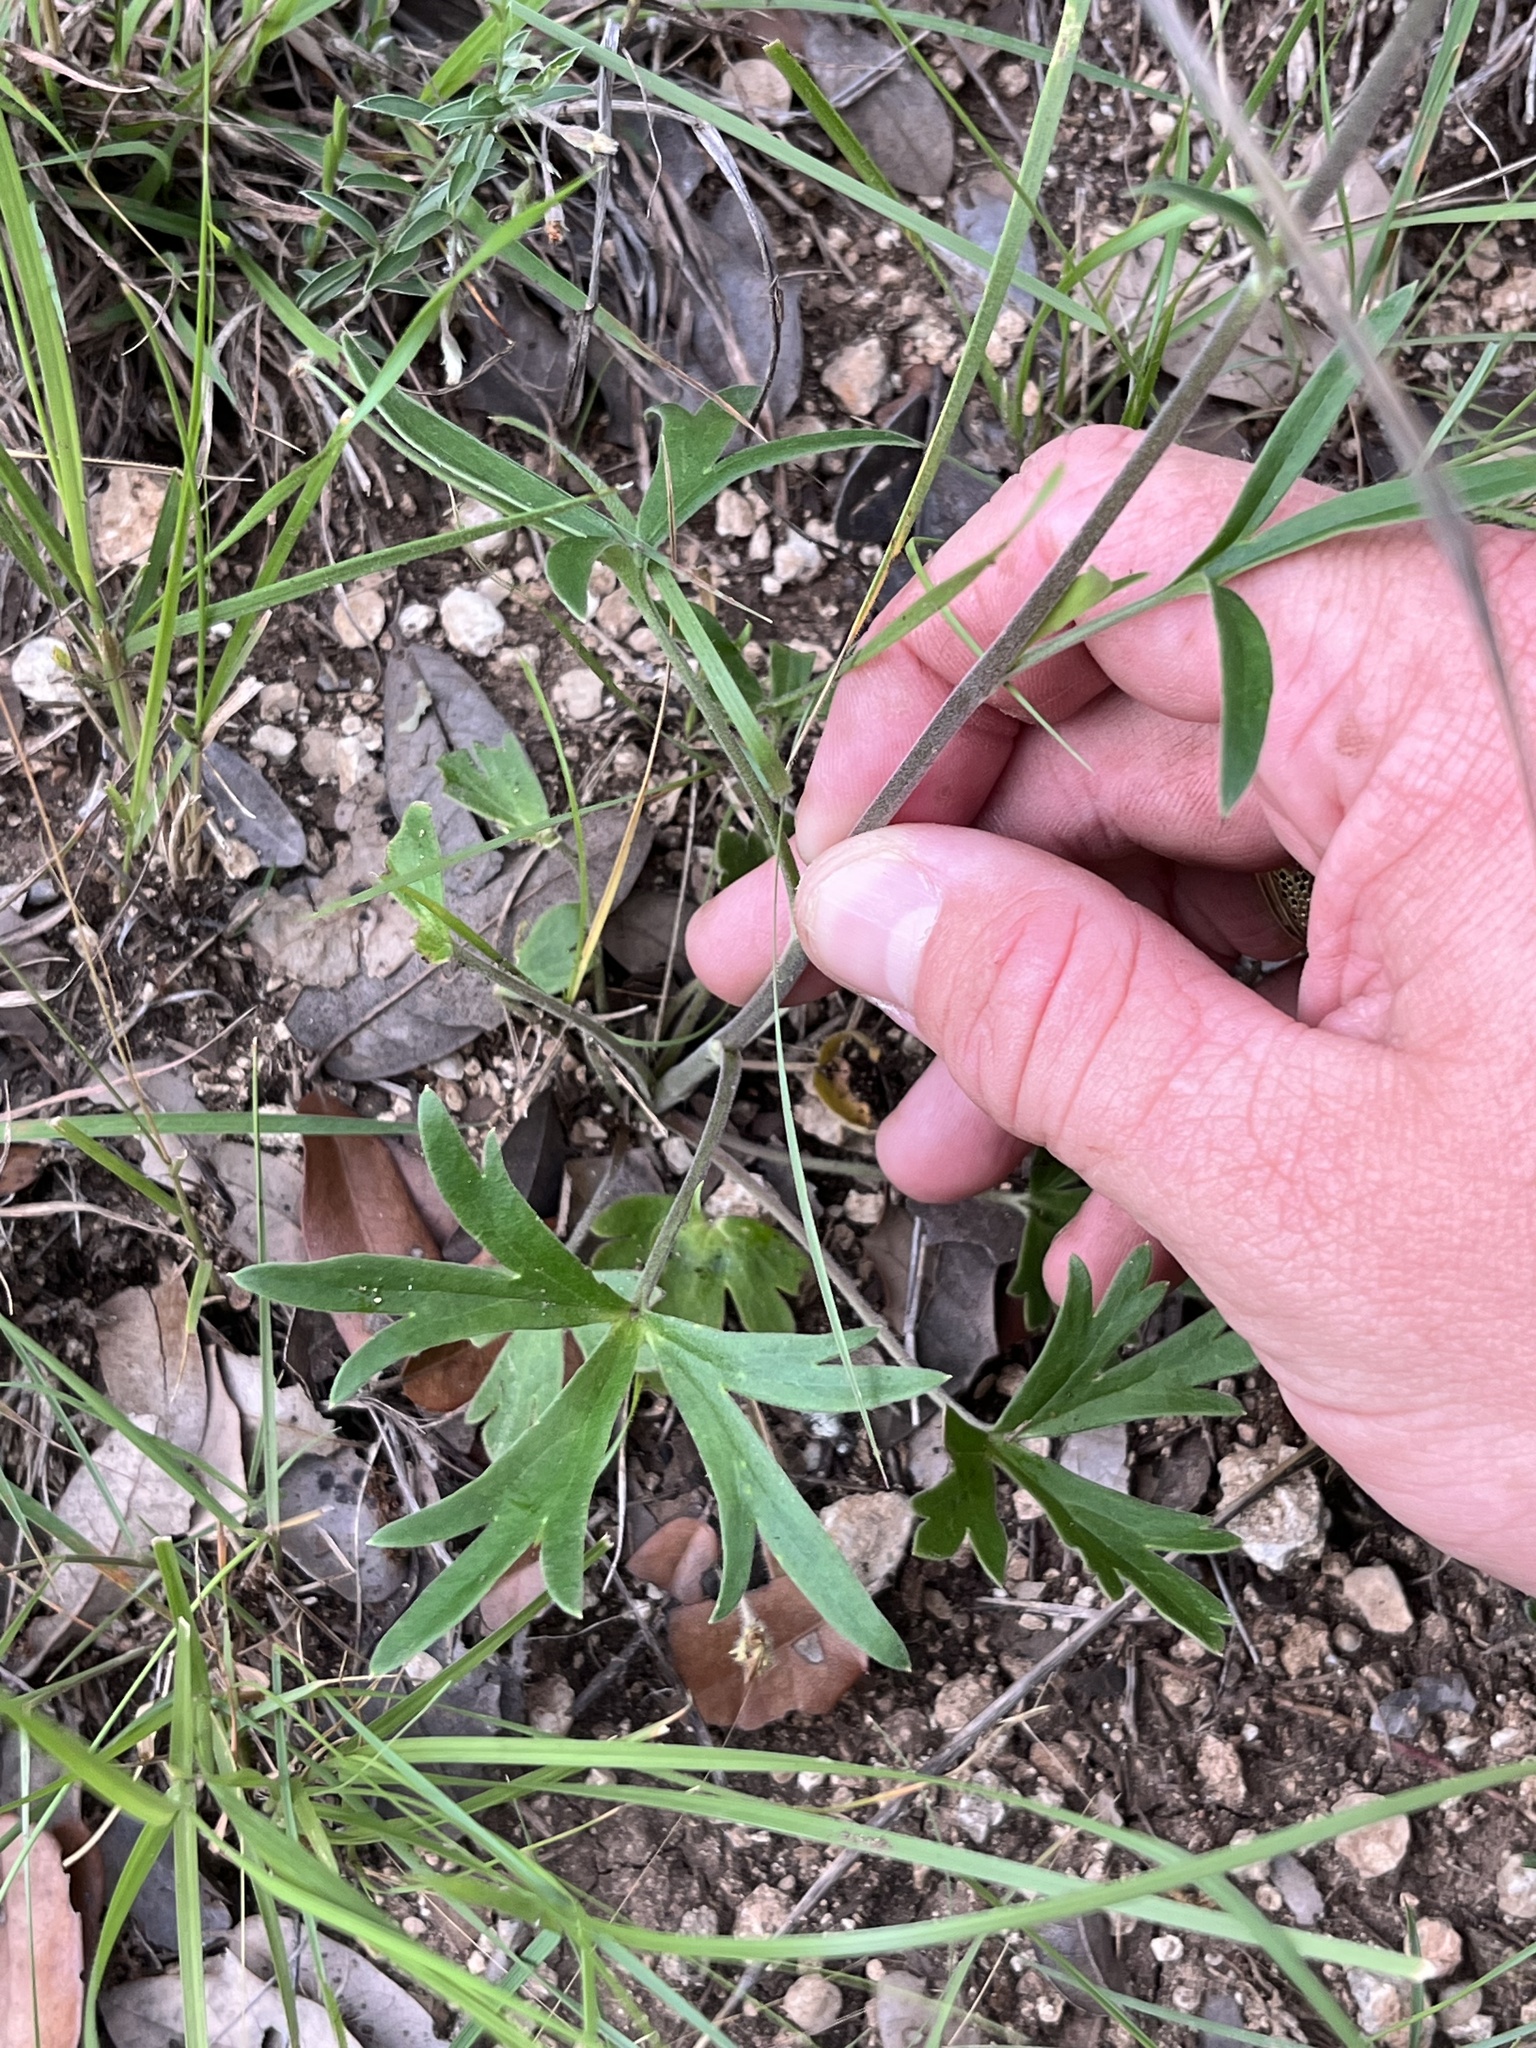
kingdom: Plantae
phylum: Tracheophyta
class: Magnoliopsida
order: Ranunculales
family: Ranunculaceae
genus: Delphinium
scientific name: Delphinium carolinianum
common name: Carolina larkspur
